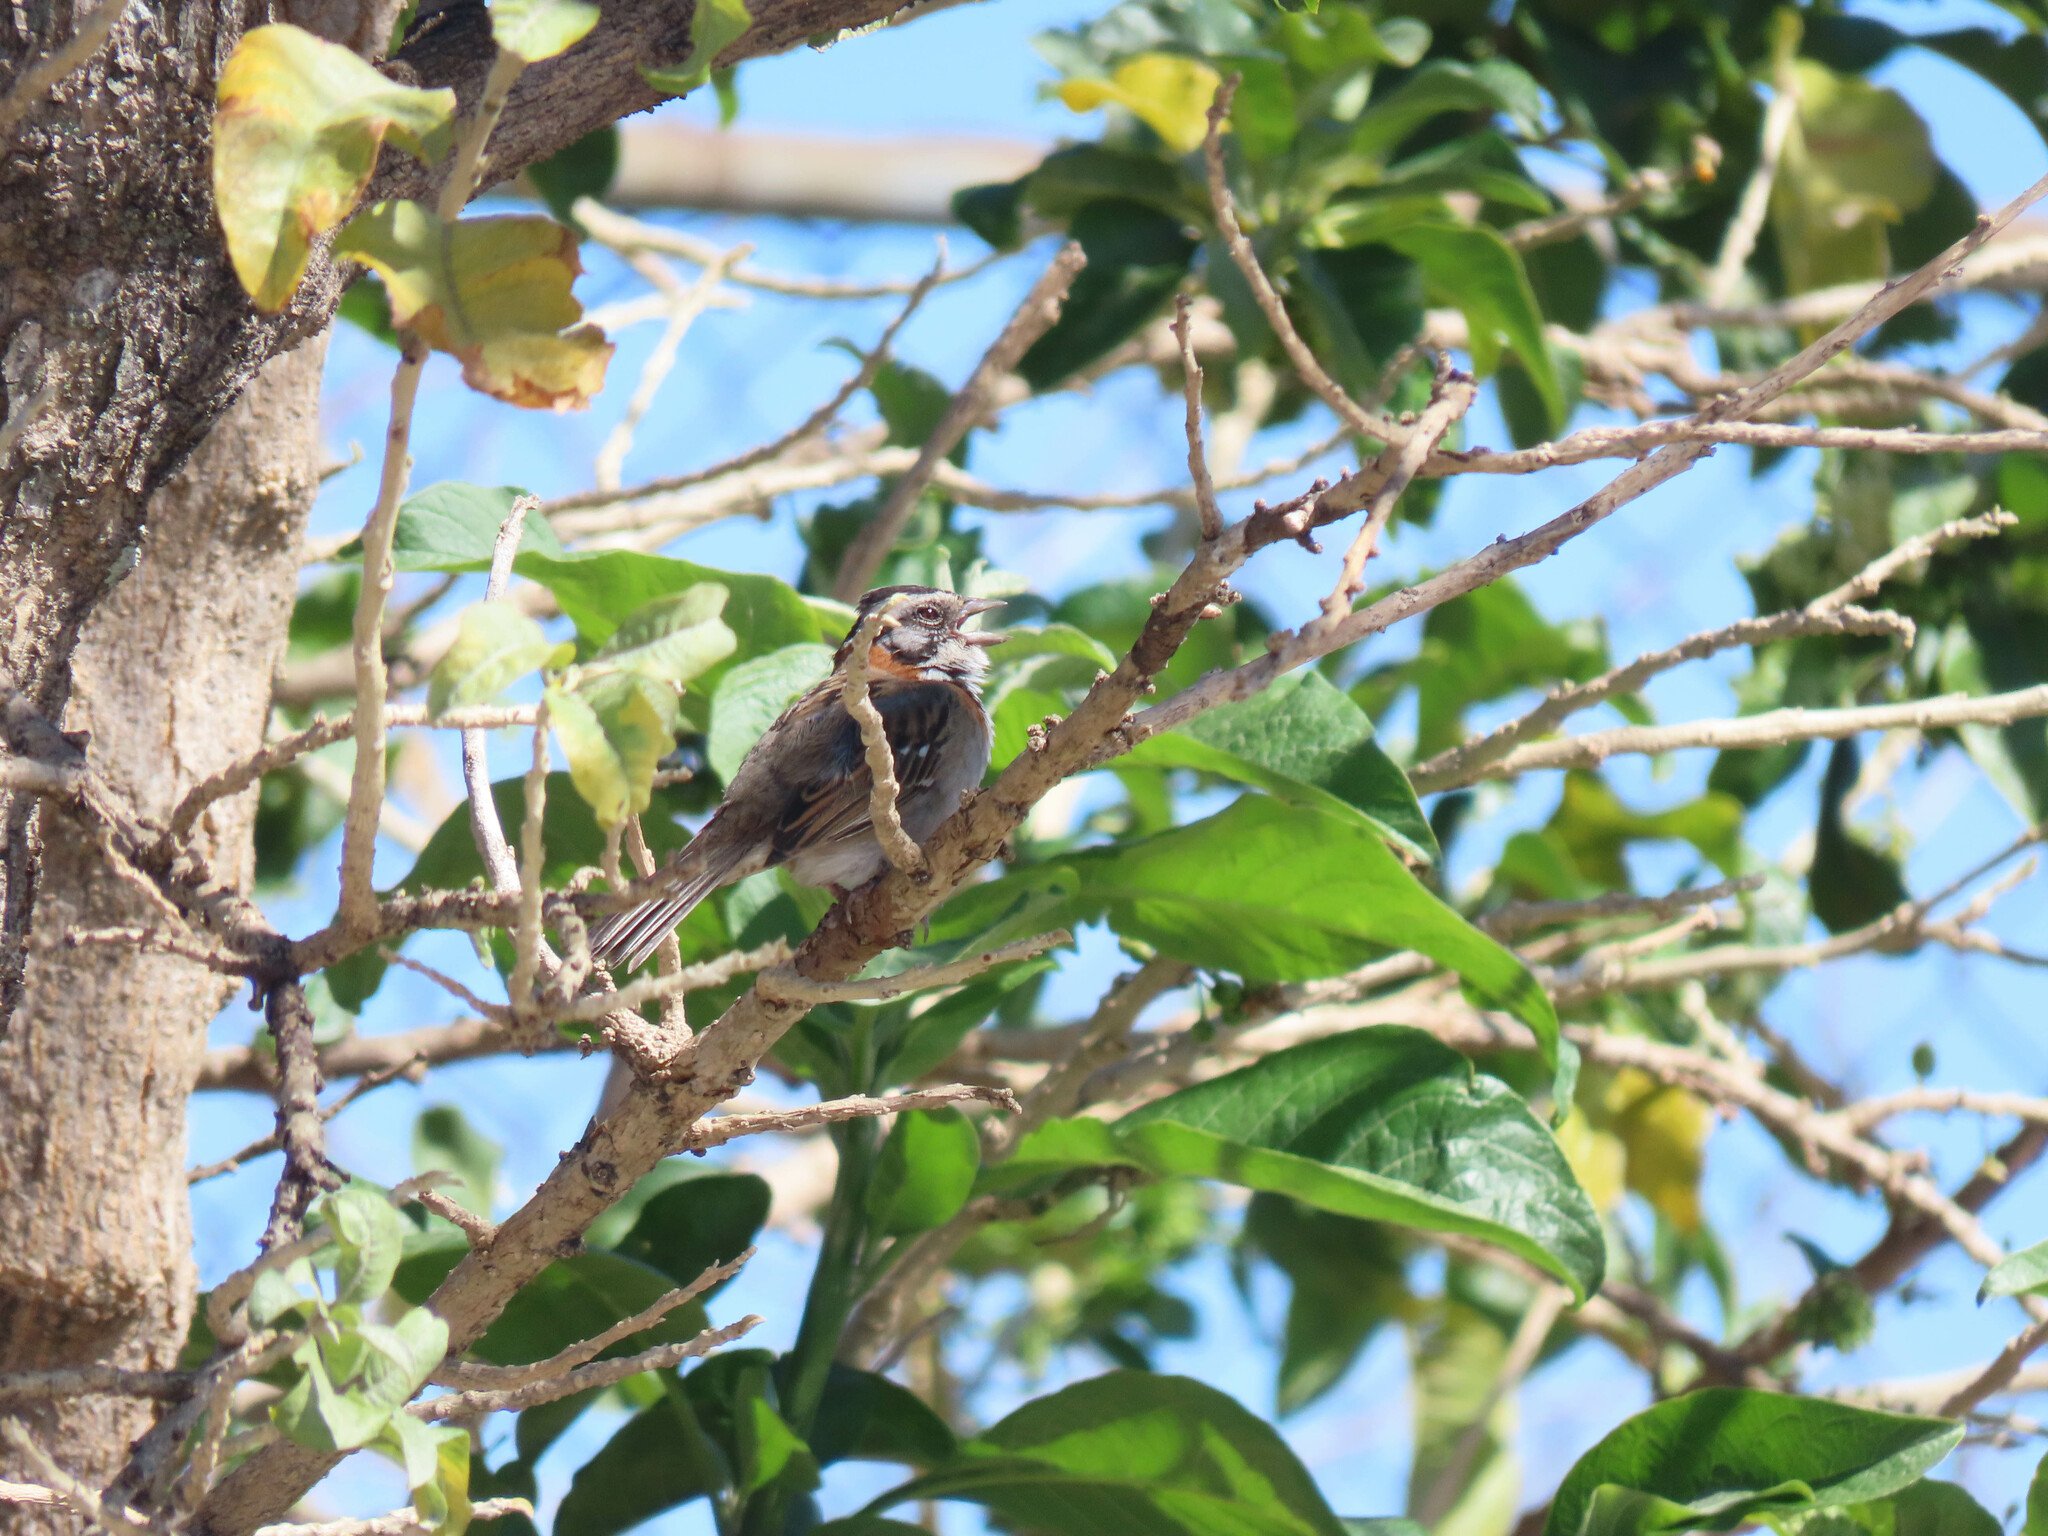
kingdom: Animalia
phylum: Chordata
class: Aves
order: Passeriformes
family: Passerellidae
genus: Zonotrichia
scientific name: Zonotrichia capensis
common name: Rufous-collared sparrow
